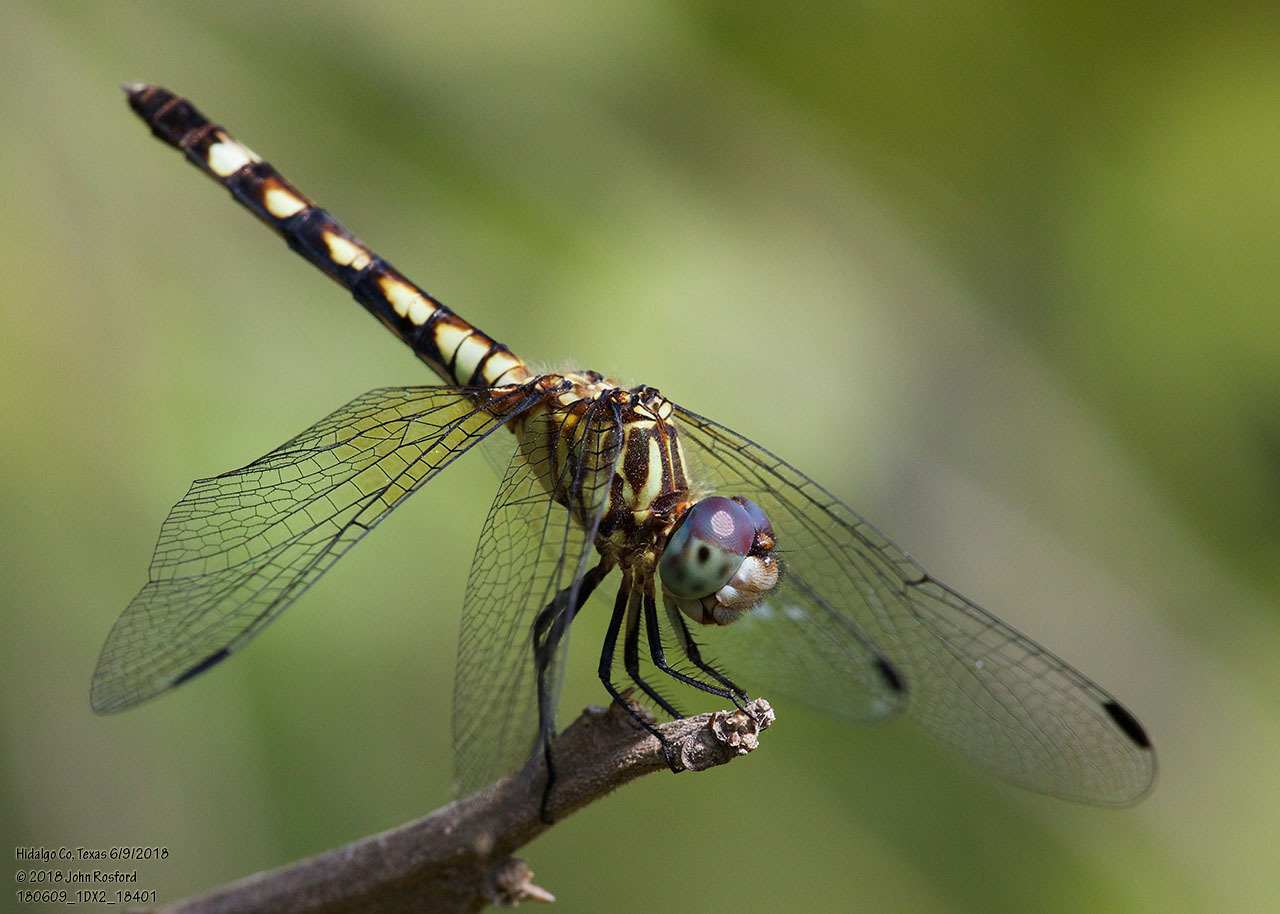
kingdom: Animalia
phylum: Arthropoda
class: Insecta
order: Odonata
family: Libellulidae
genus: Micrathyria
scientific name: Micrathyria hagenii
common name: Thornbush dasher
